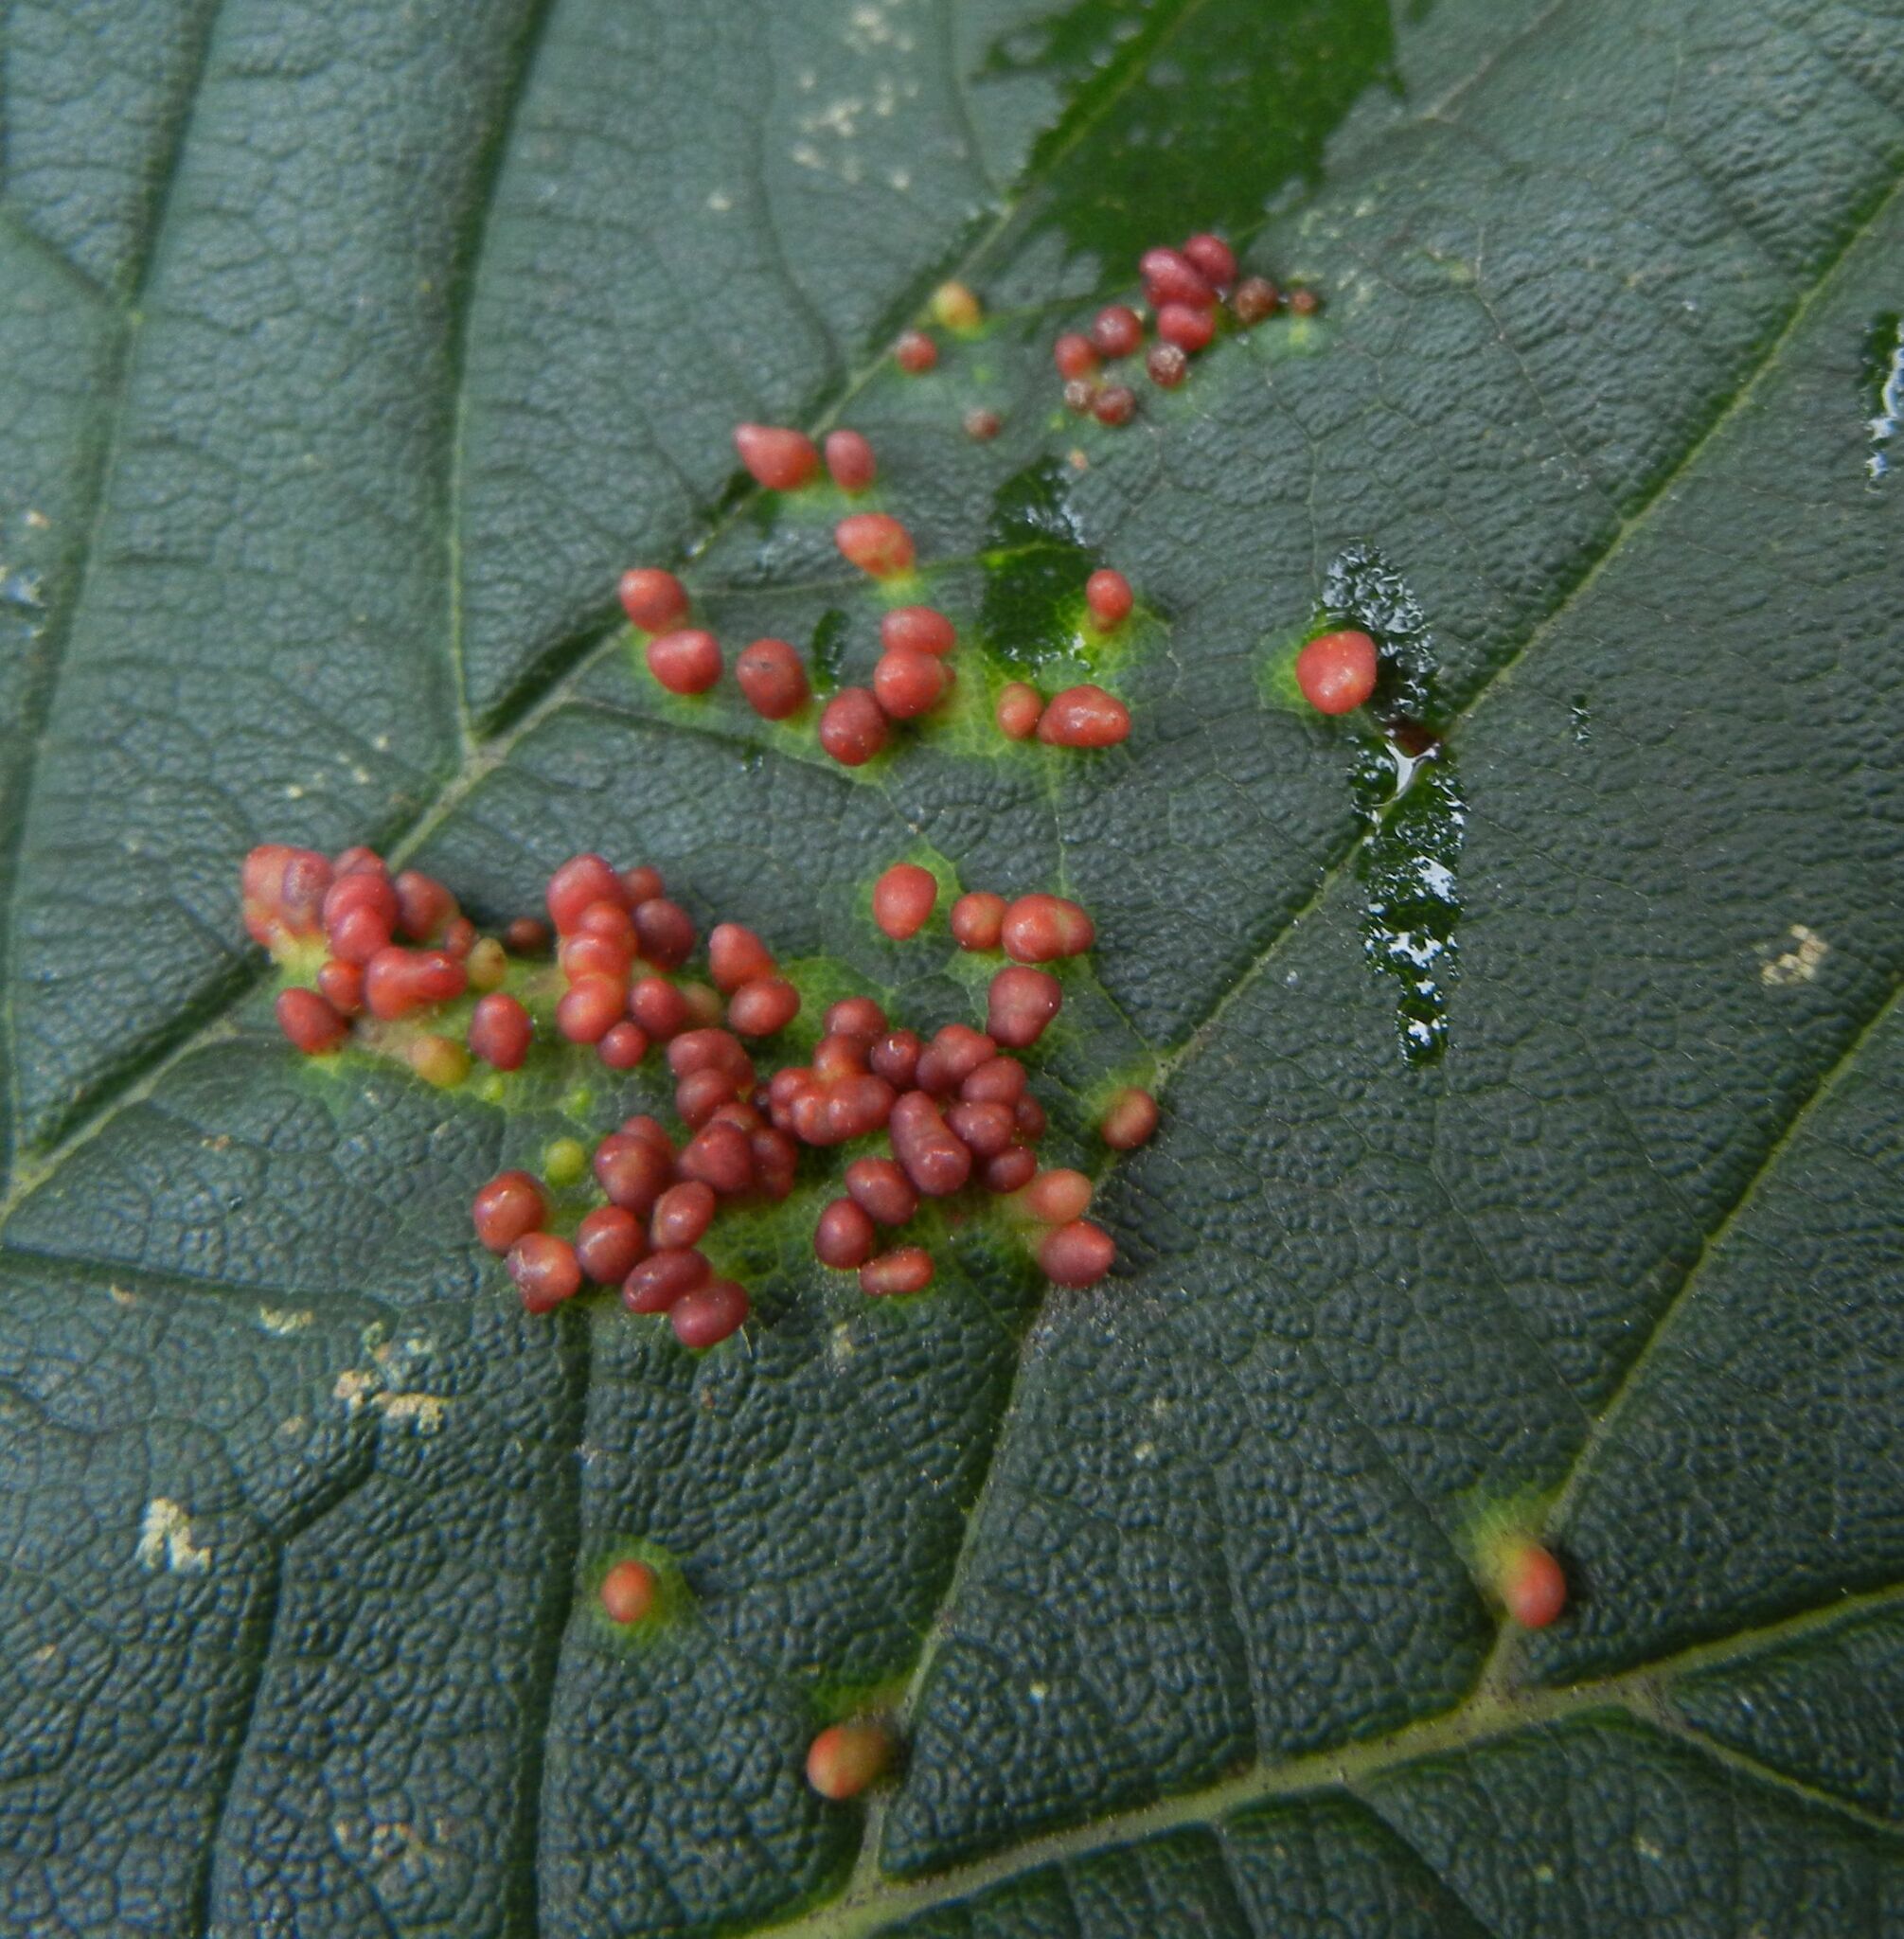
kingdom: Animalia
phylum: Arthropoda
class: Arachnida
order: Trombidiformes
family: Eriophyidae
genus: Aceria
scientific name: Aceria cephaloneus
